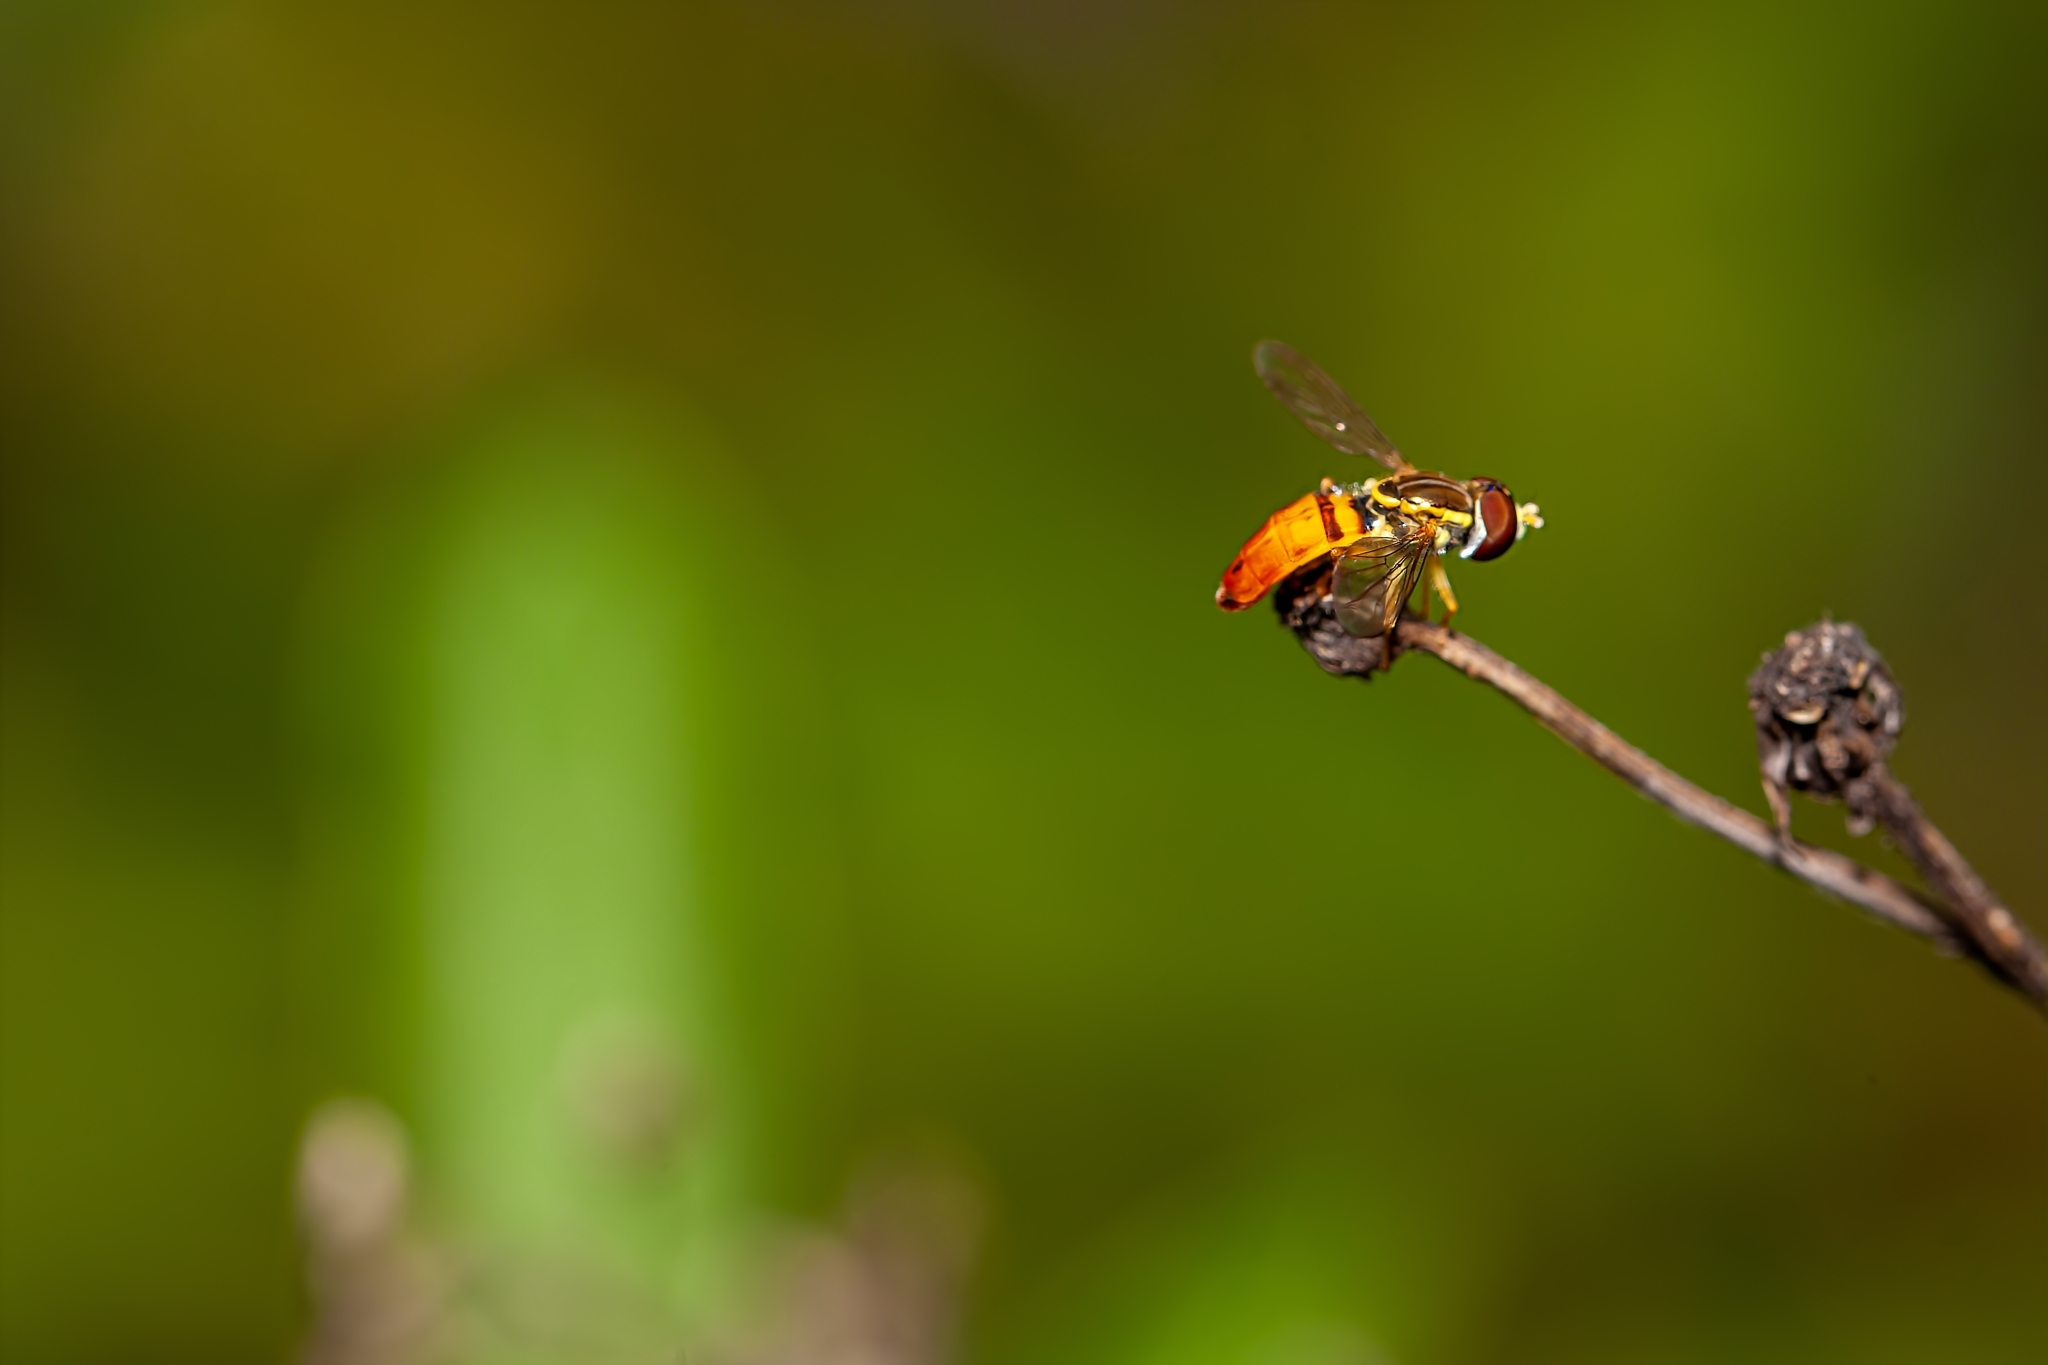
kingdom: Animalia
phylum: Arthropoda
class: Insecta
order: Diptera
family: Syrphidae
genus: Toxomerus
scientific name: Toxomerus floralis
